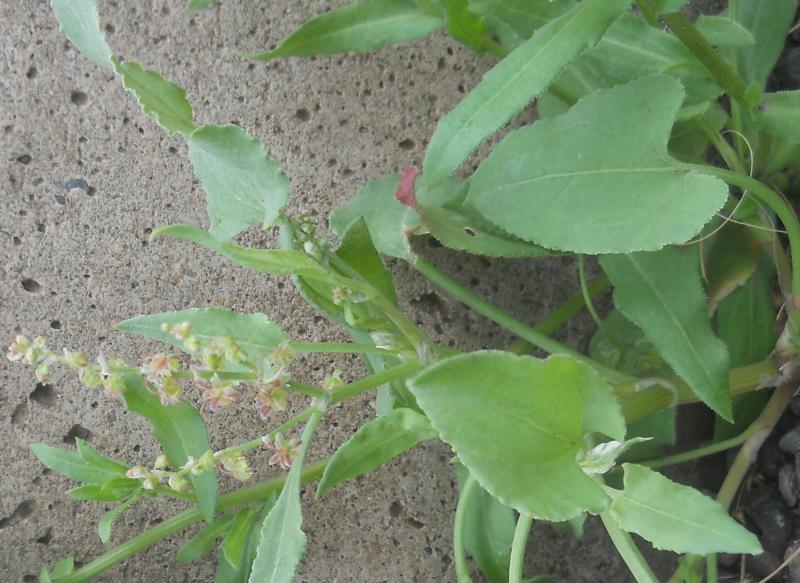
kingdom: Plantae
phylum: Tracheophyta
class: Magnoliopsida
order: Caryophyllales
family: Polygonaceae
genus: Rumex
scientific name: Rumex maderensis
